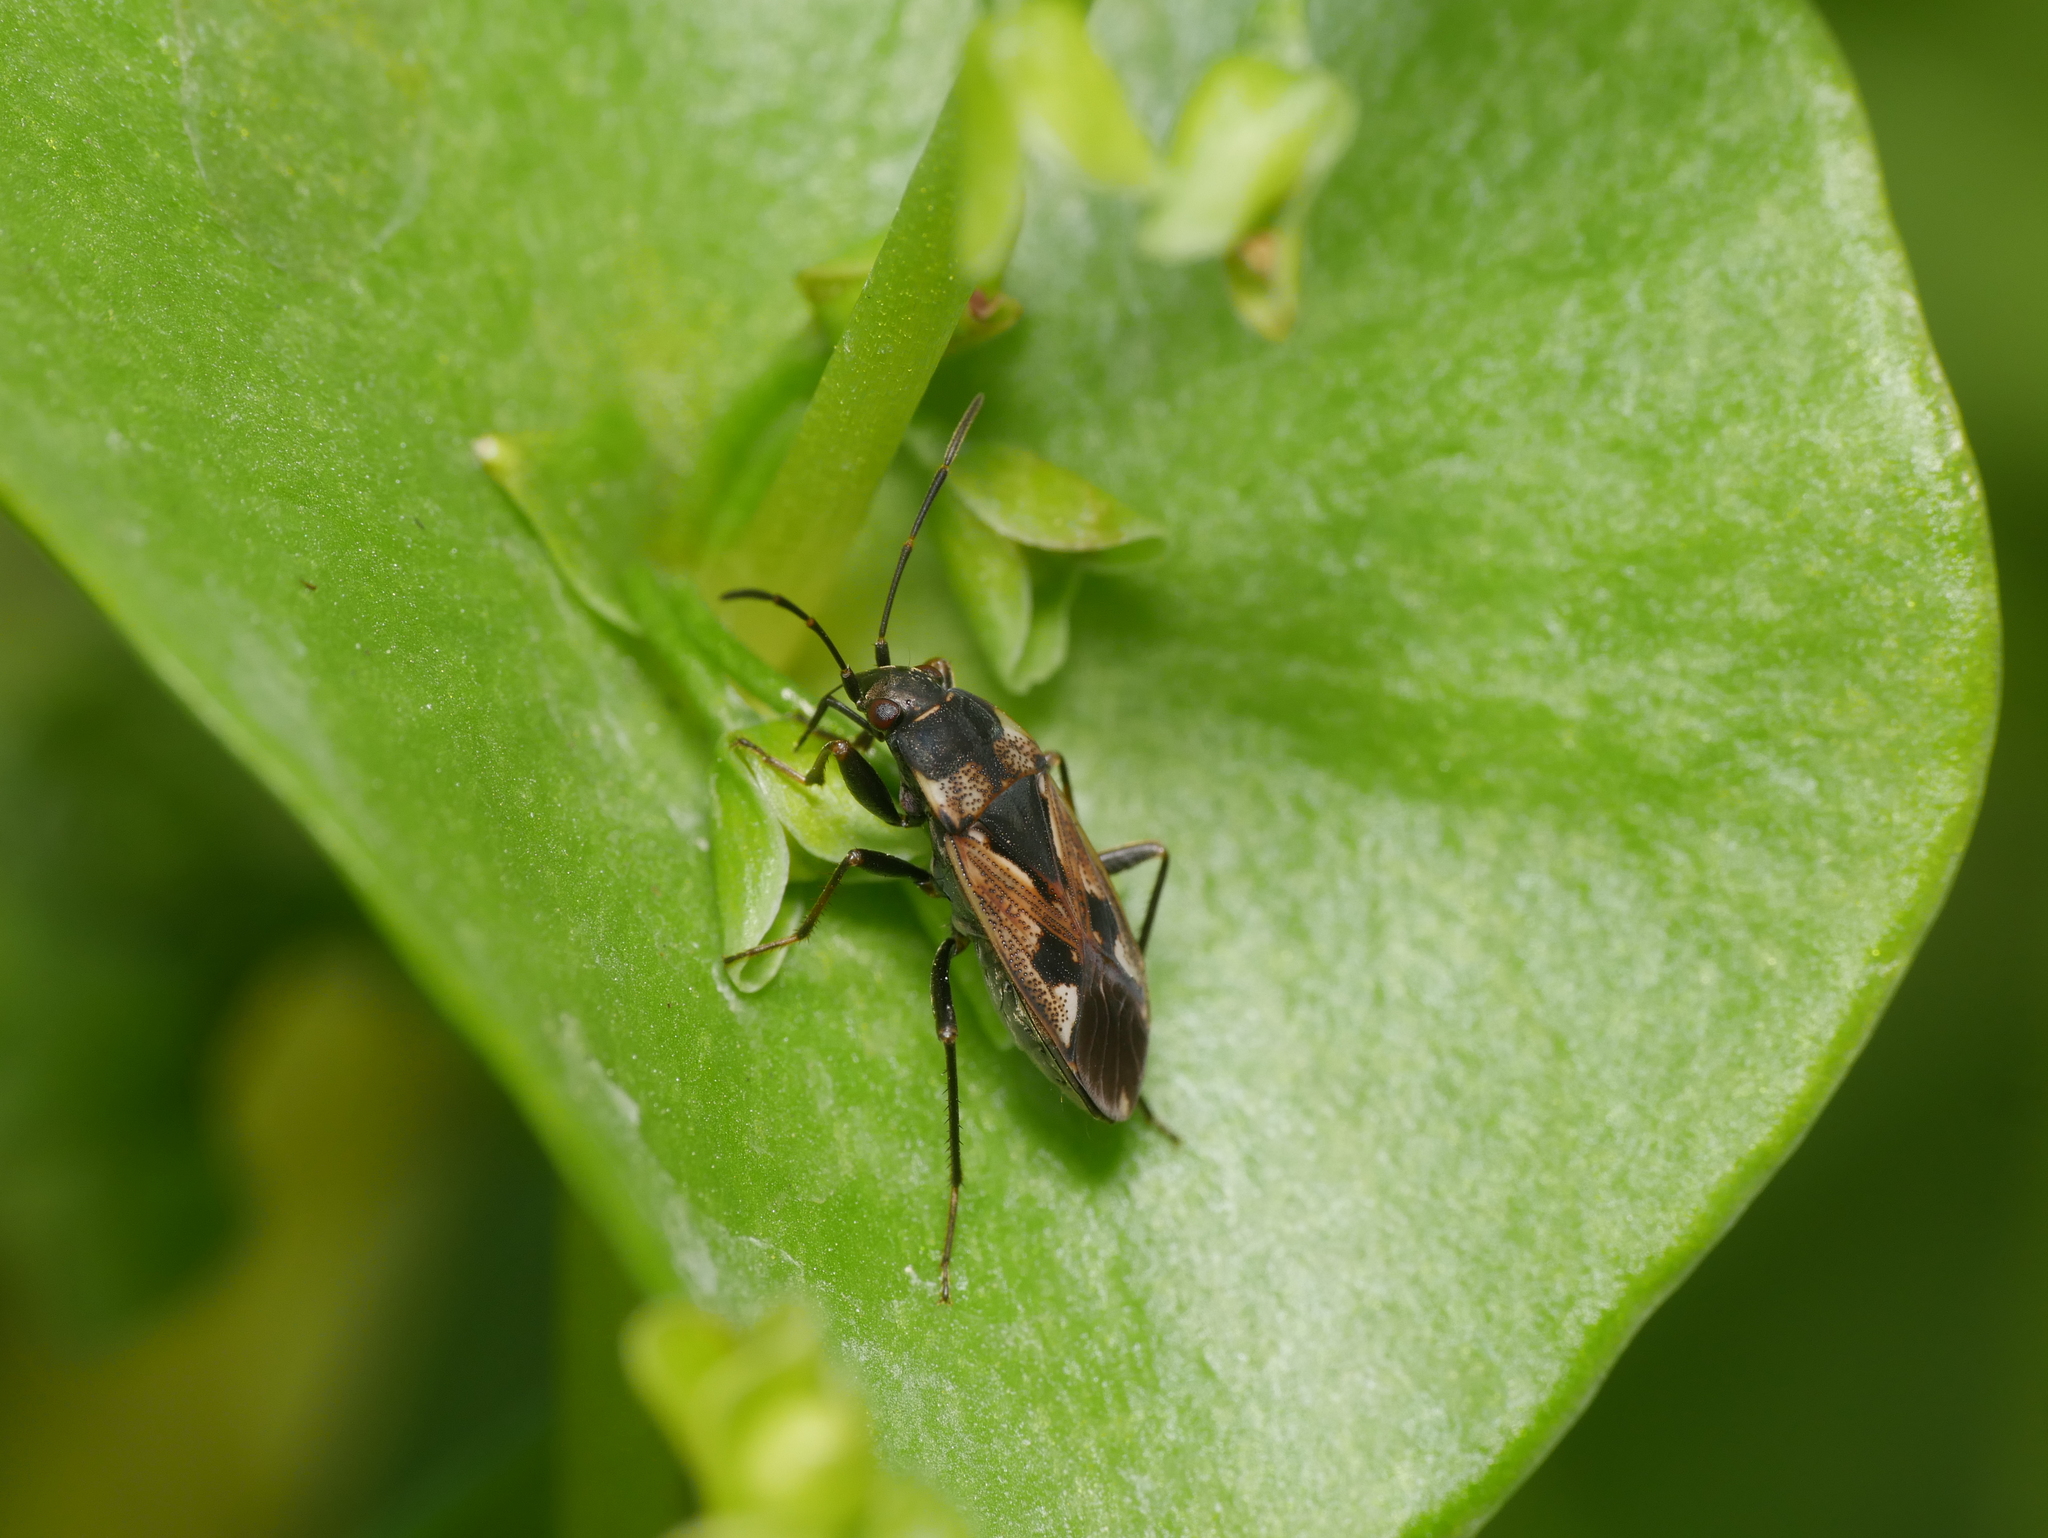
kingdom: Animalia
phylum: Arthropoda
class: Insecta
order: Hemiptera
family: Rhyparochromidae
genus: Rhyparochromus
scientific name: Rhyparochromus vulgaris
